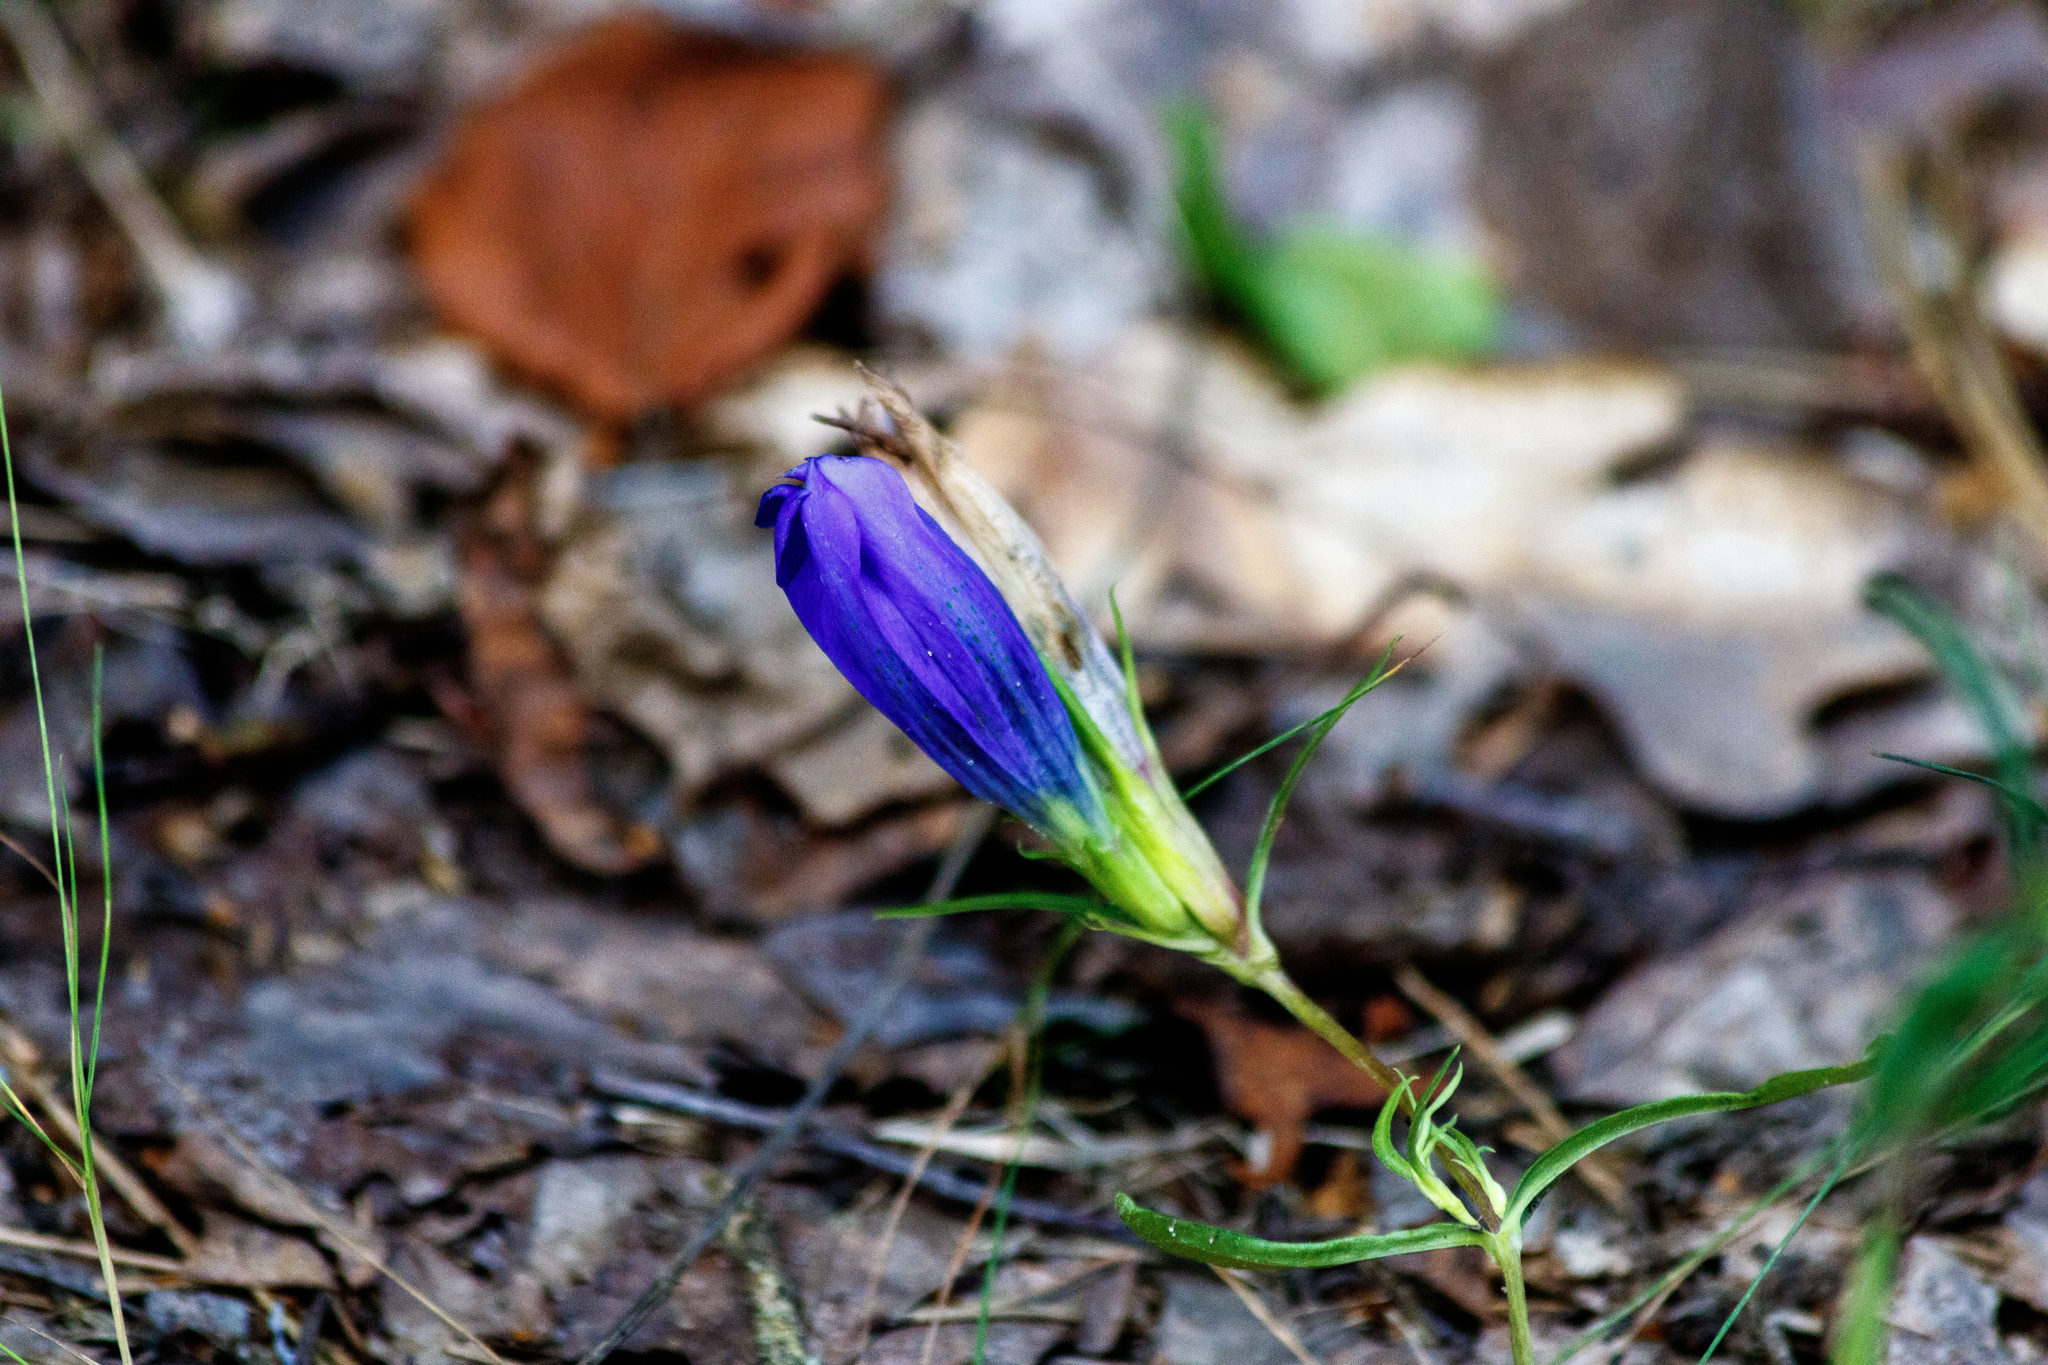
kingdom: Plantae
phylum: Tracheophyta
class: Magnoliopsida
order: Gentianales
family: Gentianaceae
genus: Gentiana
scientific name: Gentiana pneumonanthe
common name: Marsh gentian
